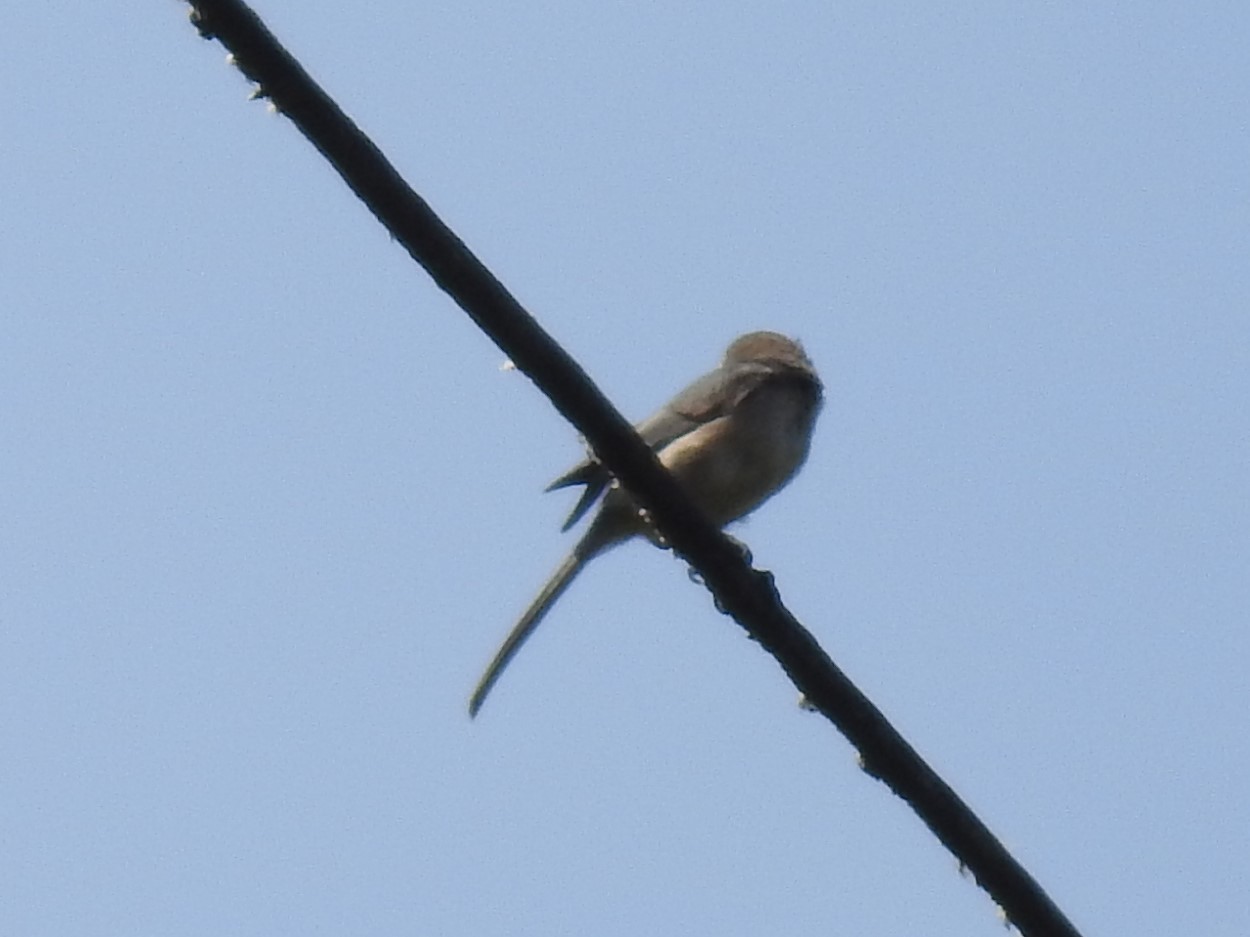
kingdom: Animalia
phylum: Chordata
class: Aves
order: Passeriformes
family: Aegithalidae
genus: Psaltriparus
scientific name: Psaltriparus minimus
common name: American bushtit
